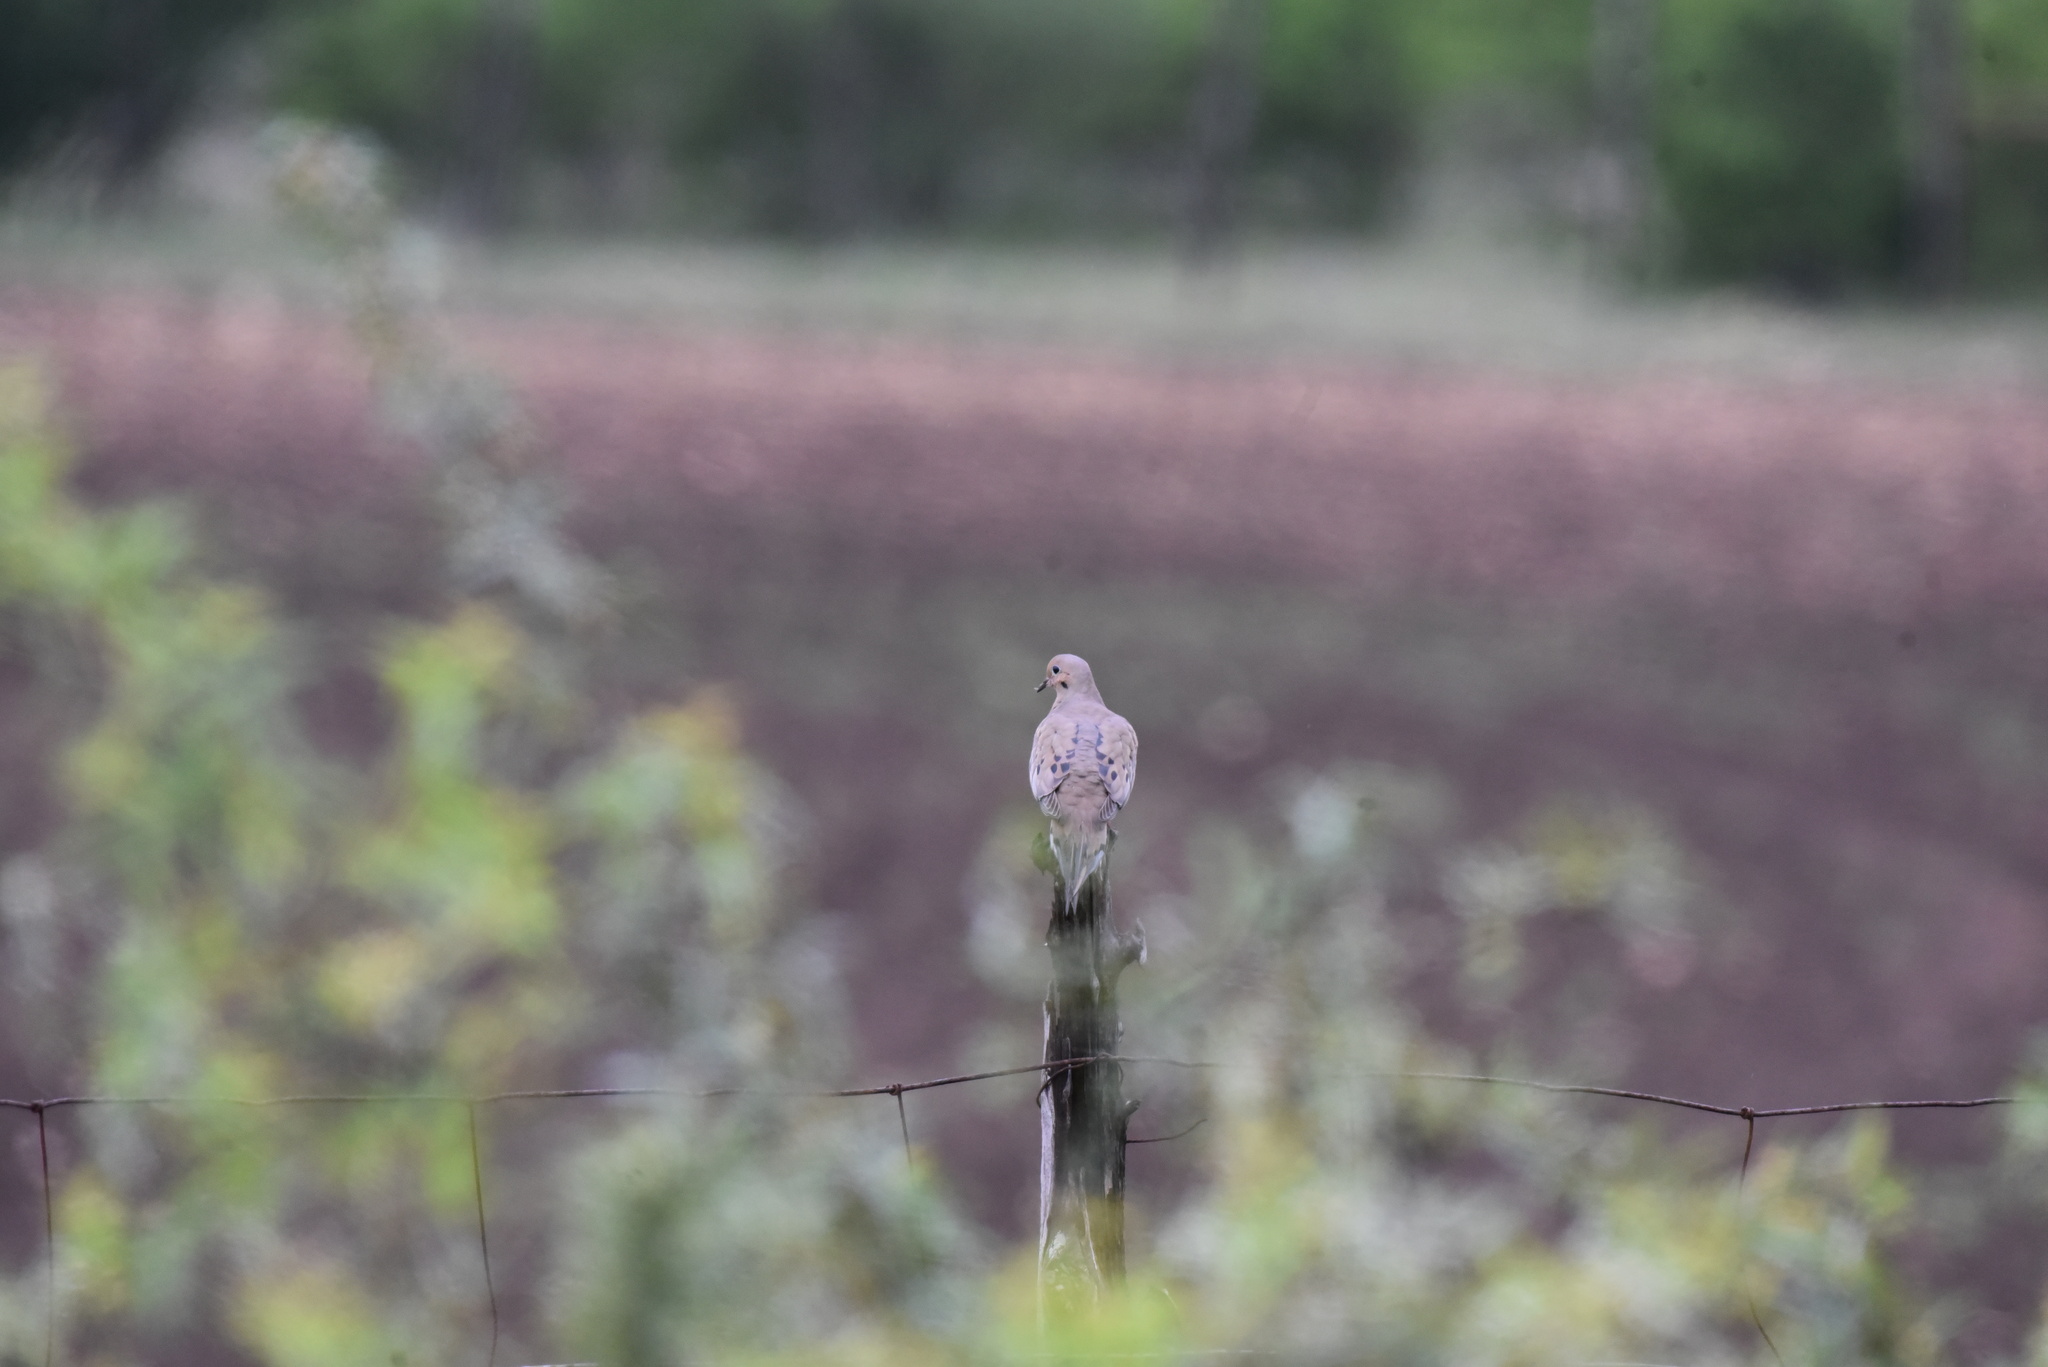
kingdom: Animalia
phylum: Chordata
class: Aves
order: Columbiformes
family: Columbidae
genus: Zenaida
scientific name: Zenaida macroura
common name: Mourning dove
